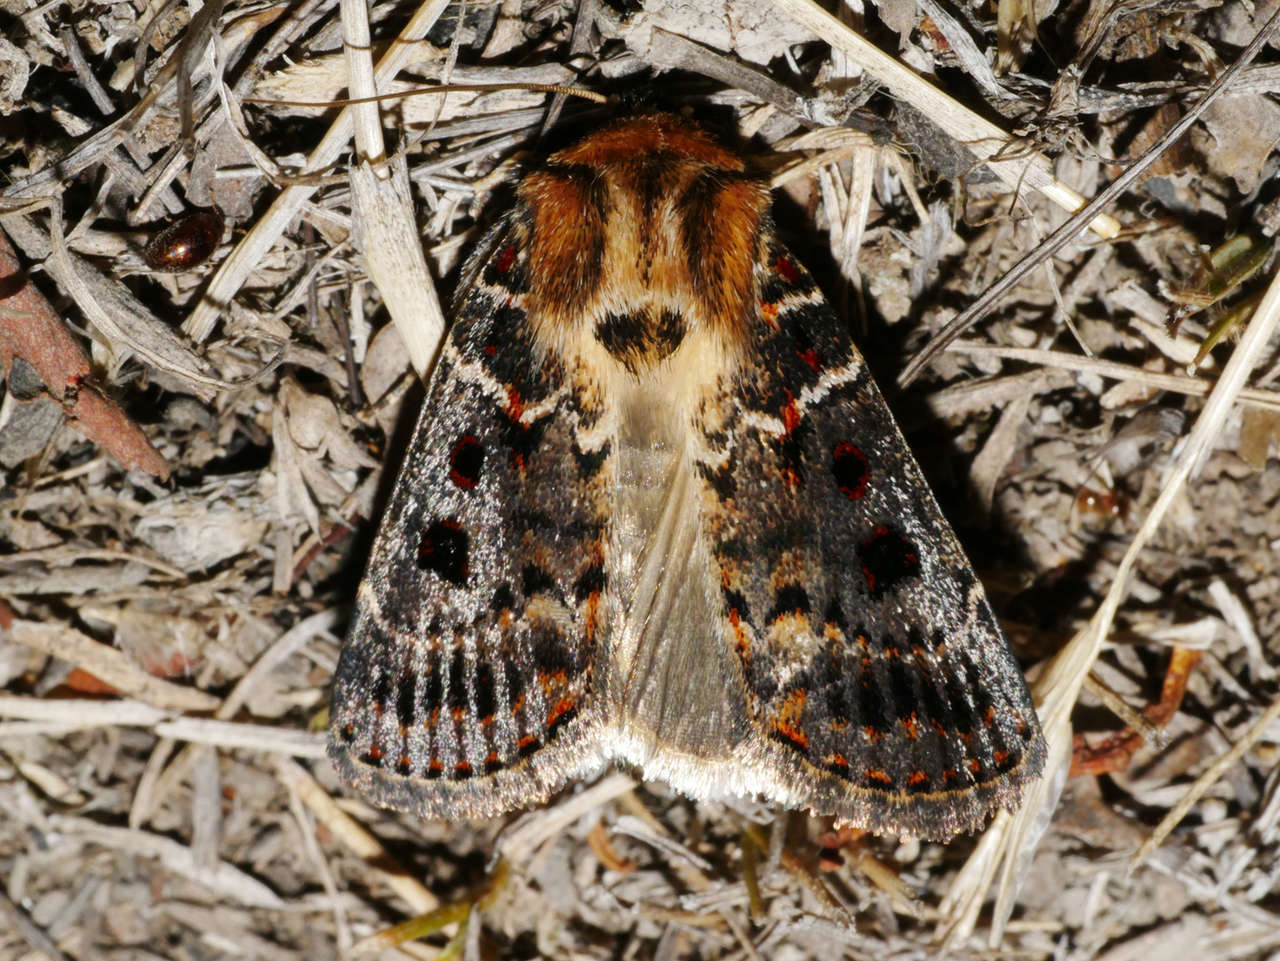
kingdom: Animalia
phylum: Arthropoda
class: Insecta
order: Lepidoptera
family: Noctuidae
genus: Proteuxoa
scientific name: Proteuxoa sanguinipuncta
